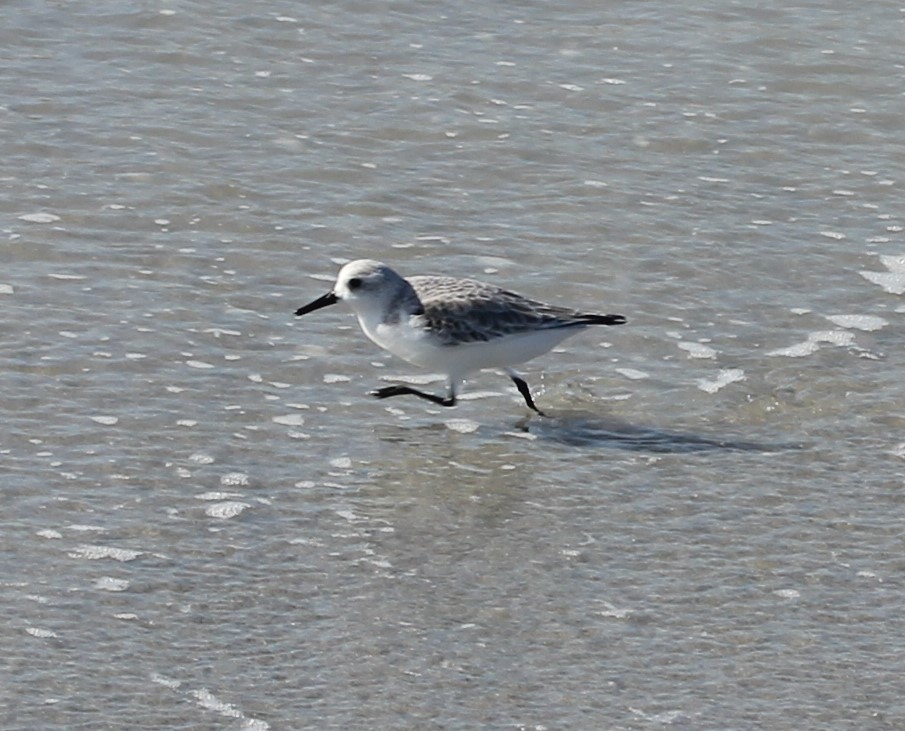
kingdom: Animalia
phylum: Chordata
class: Aves
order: Charadriiformes
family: Scolopacidae
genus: Calidris
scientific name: Calidris alba
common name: Sanderling
